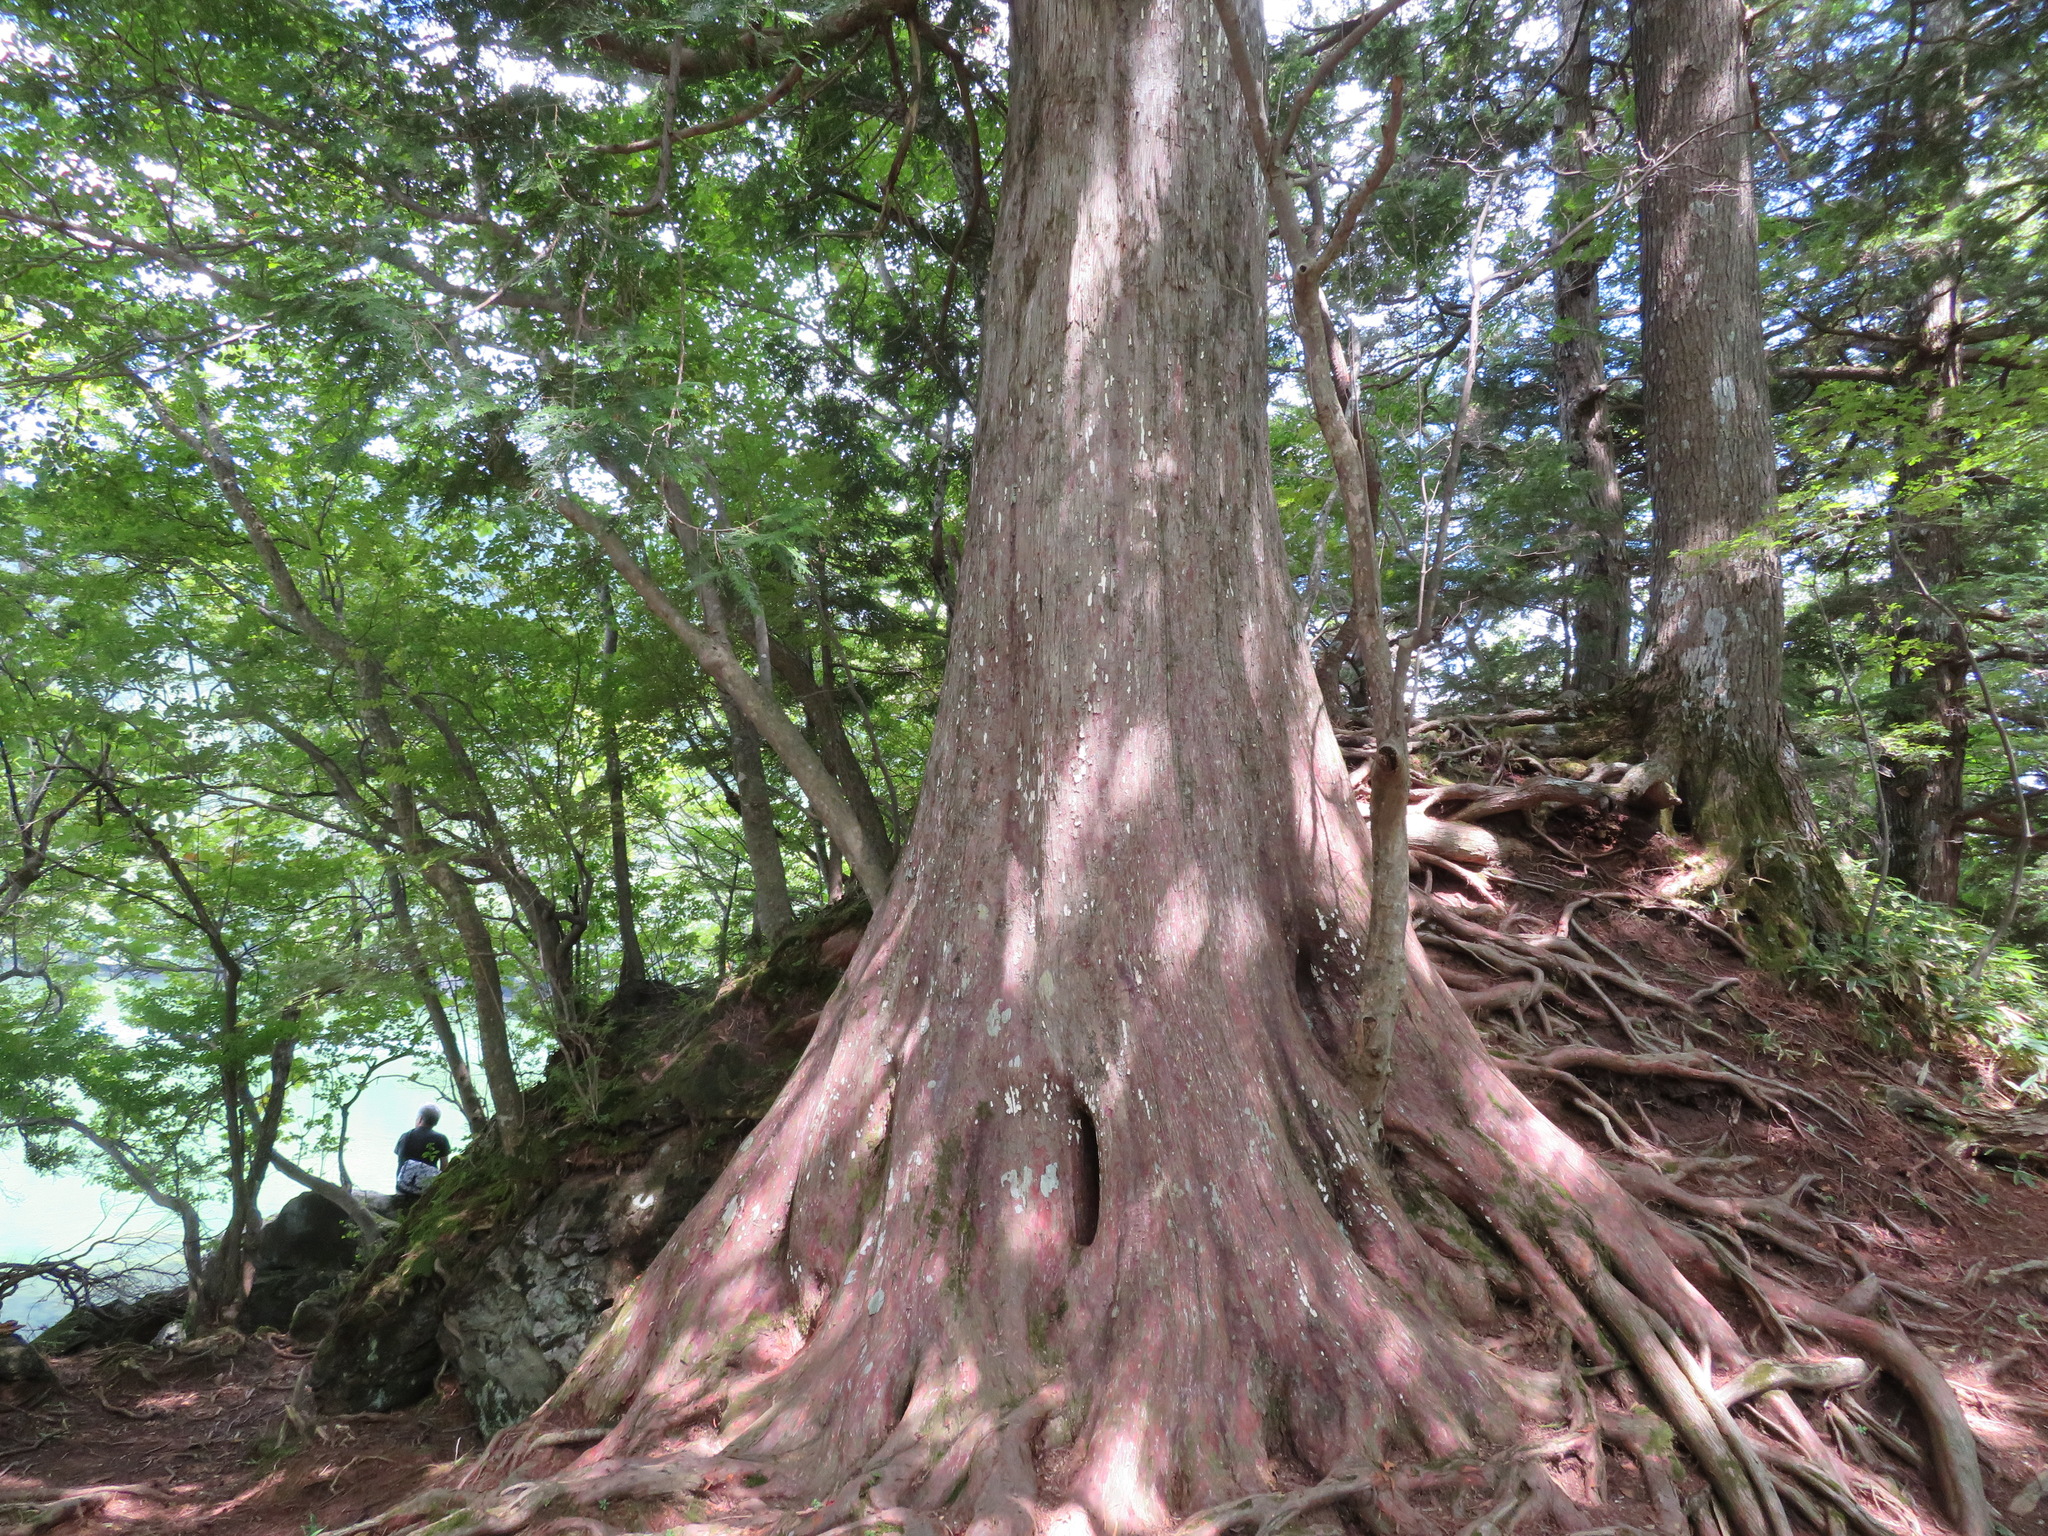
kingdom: Plantae
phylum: Tracheophyta
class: Pinopsida
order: Pinales
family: Cupressaceae
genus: Thuja
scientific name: Thuja standishii
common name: Japanese arbor-vitae
